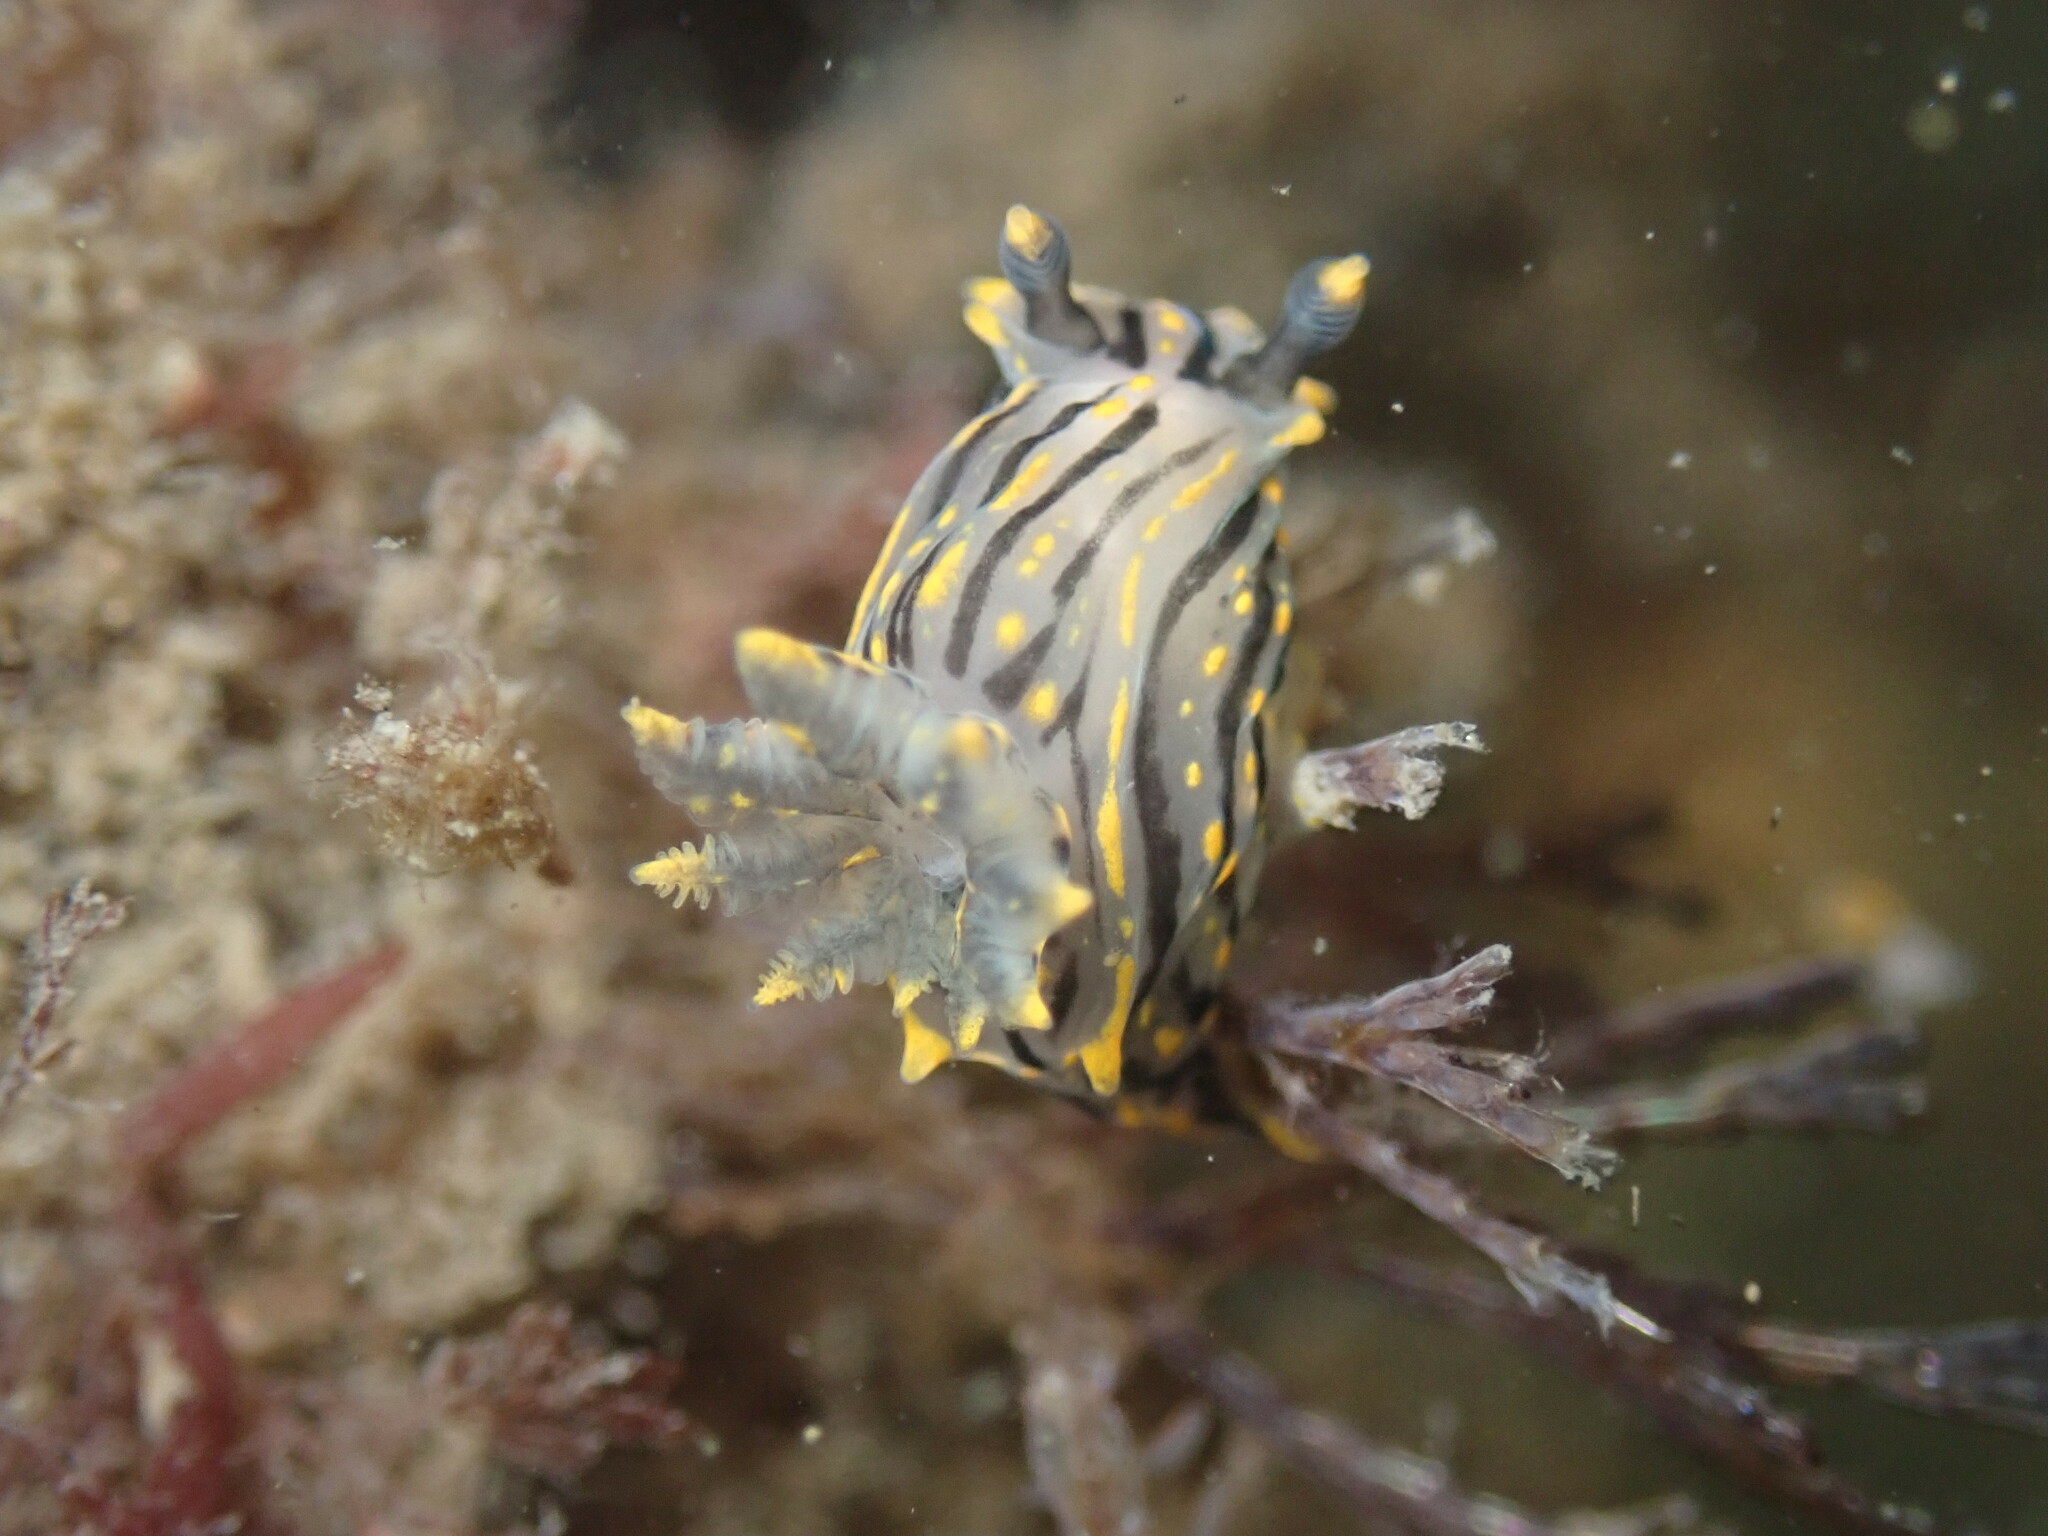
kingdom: Animalia
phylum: Mollusca
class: Gastropoda
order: Nudibranchia
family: Polyceridae
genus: Polycera
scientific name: Polycera atra
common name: Orange-spike polycera
